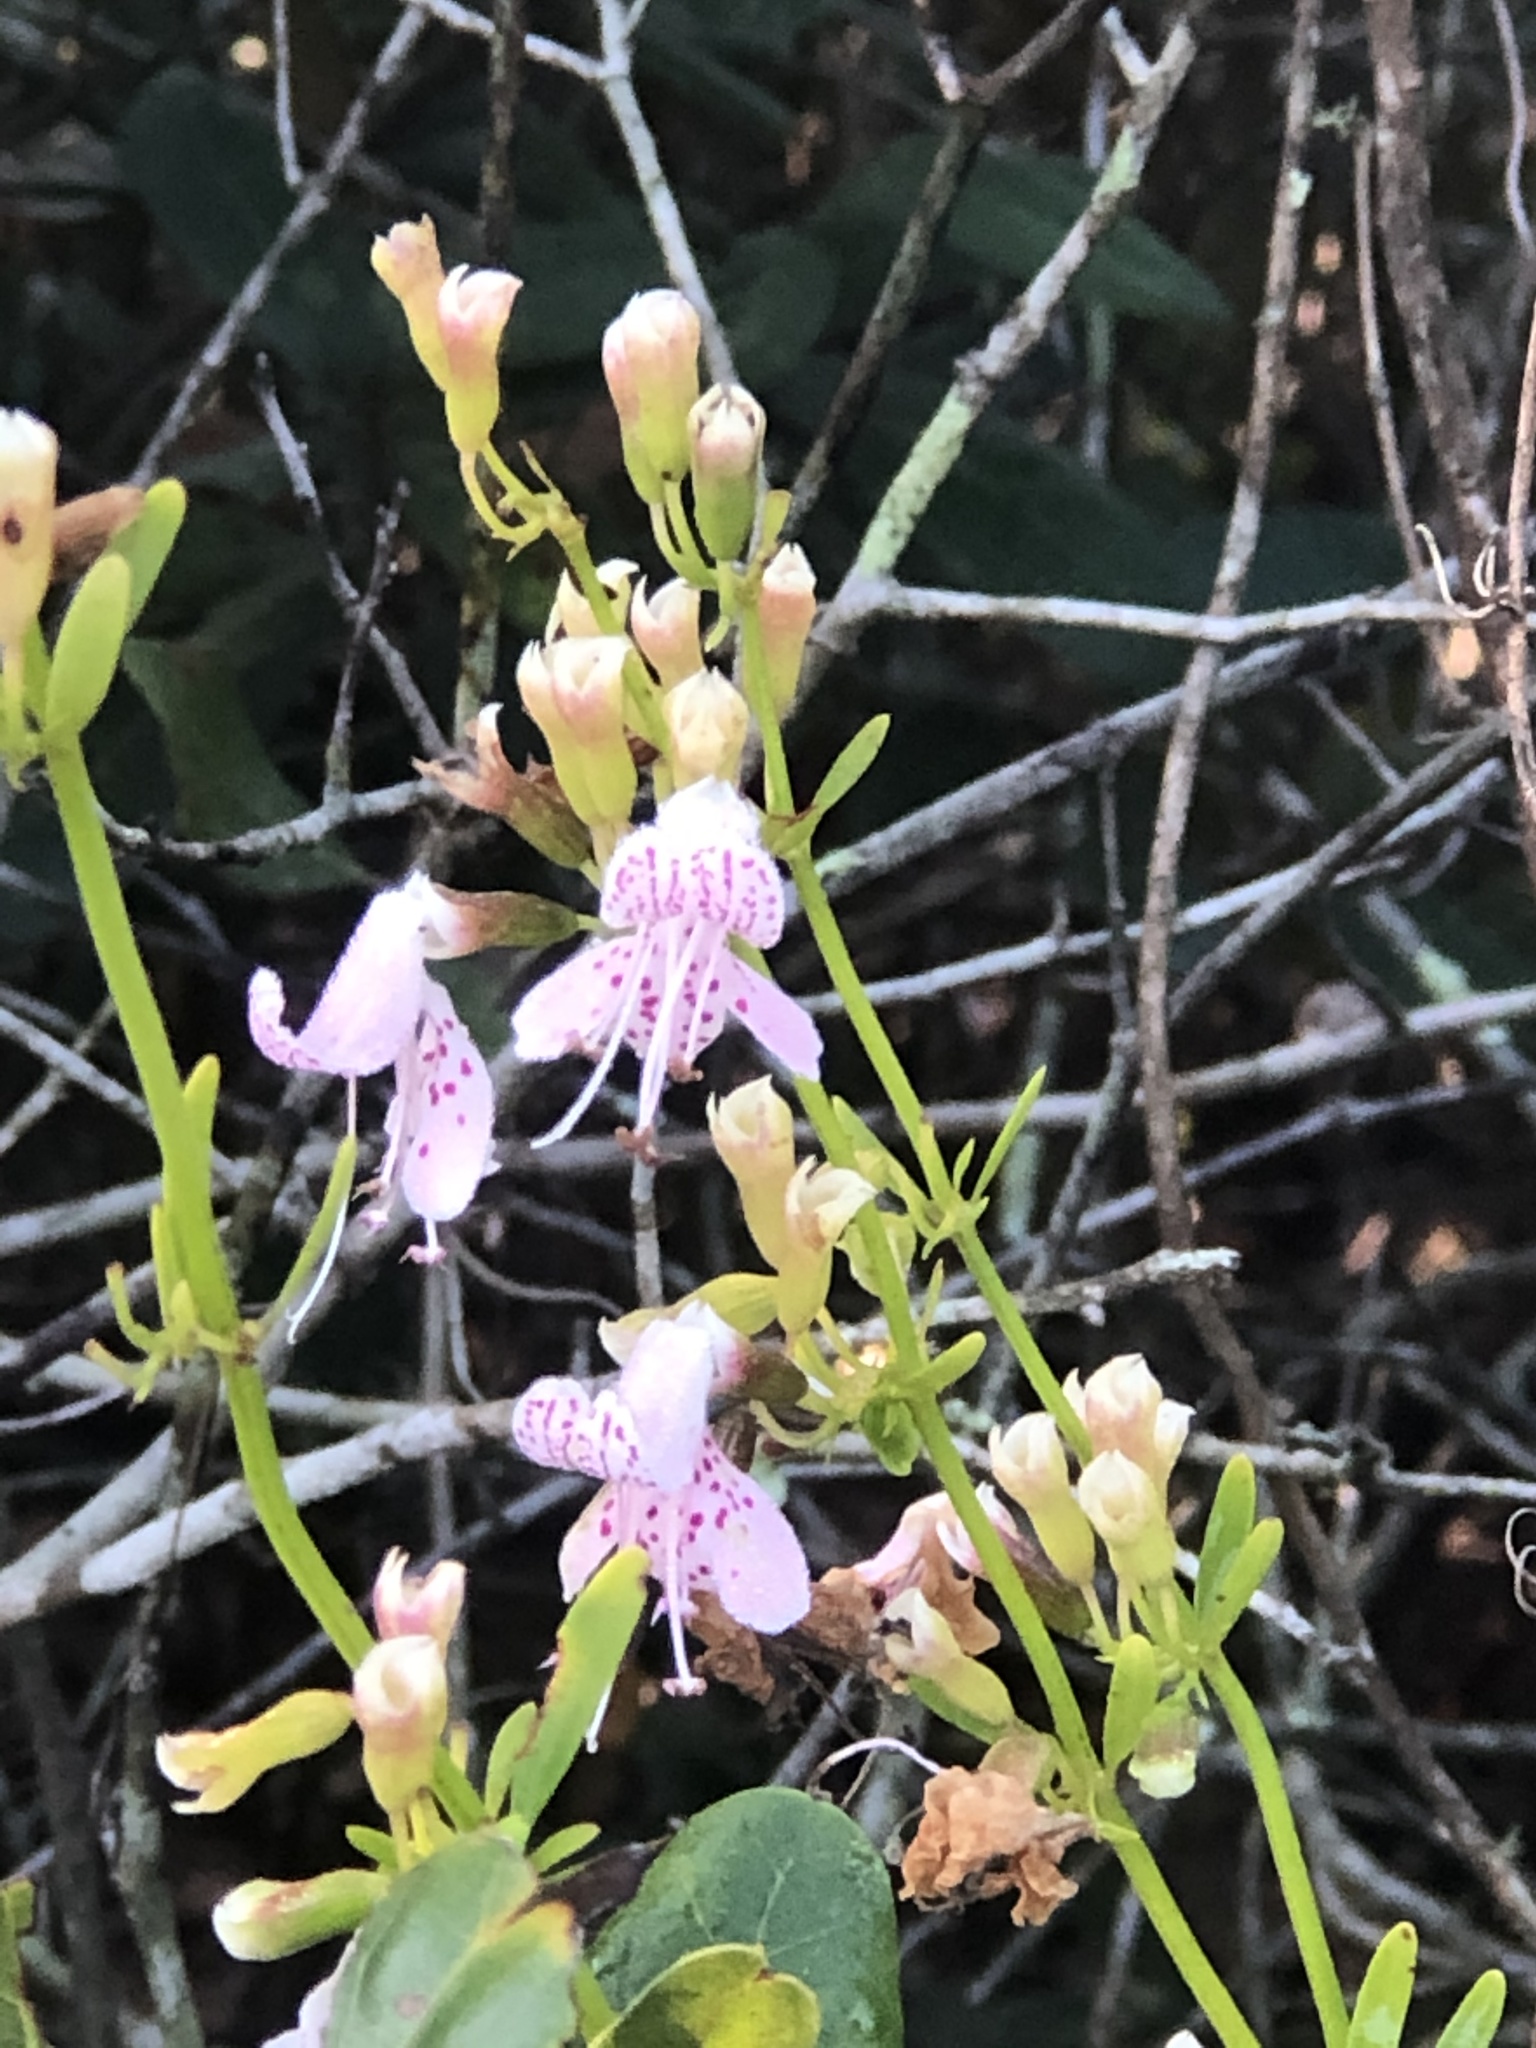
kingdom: Plantae
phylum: Tracheophyta
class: Magnoliopsida
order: Lamiales
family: Lamiaceae
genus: Dicerandra
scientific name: Dicerandra frutescens
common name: Scrub-mint
